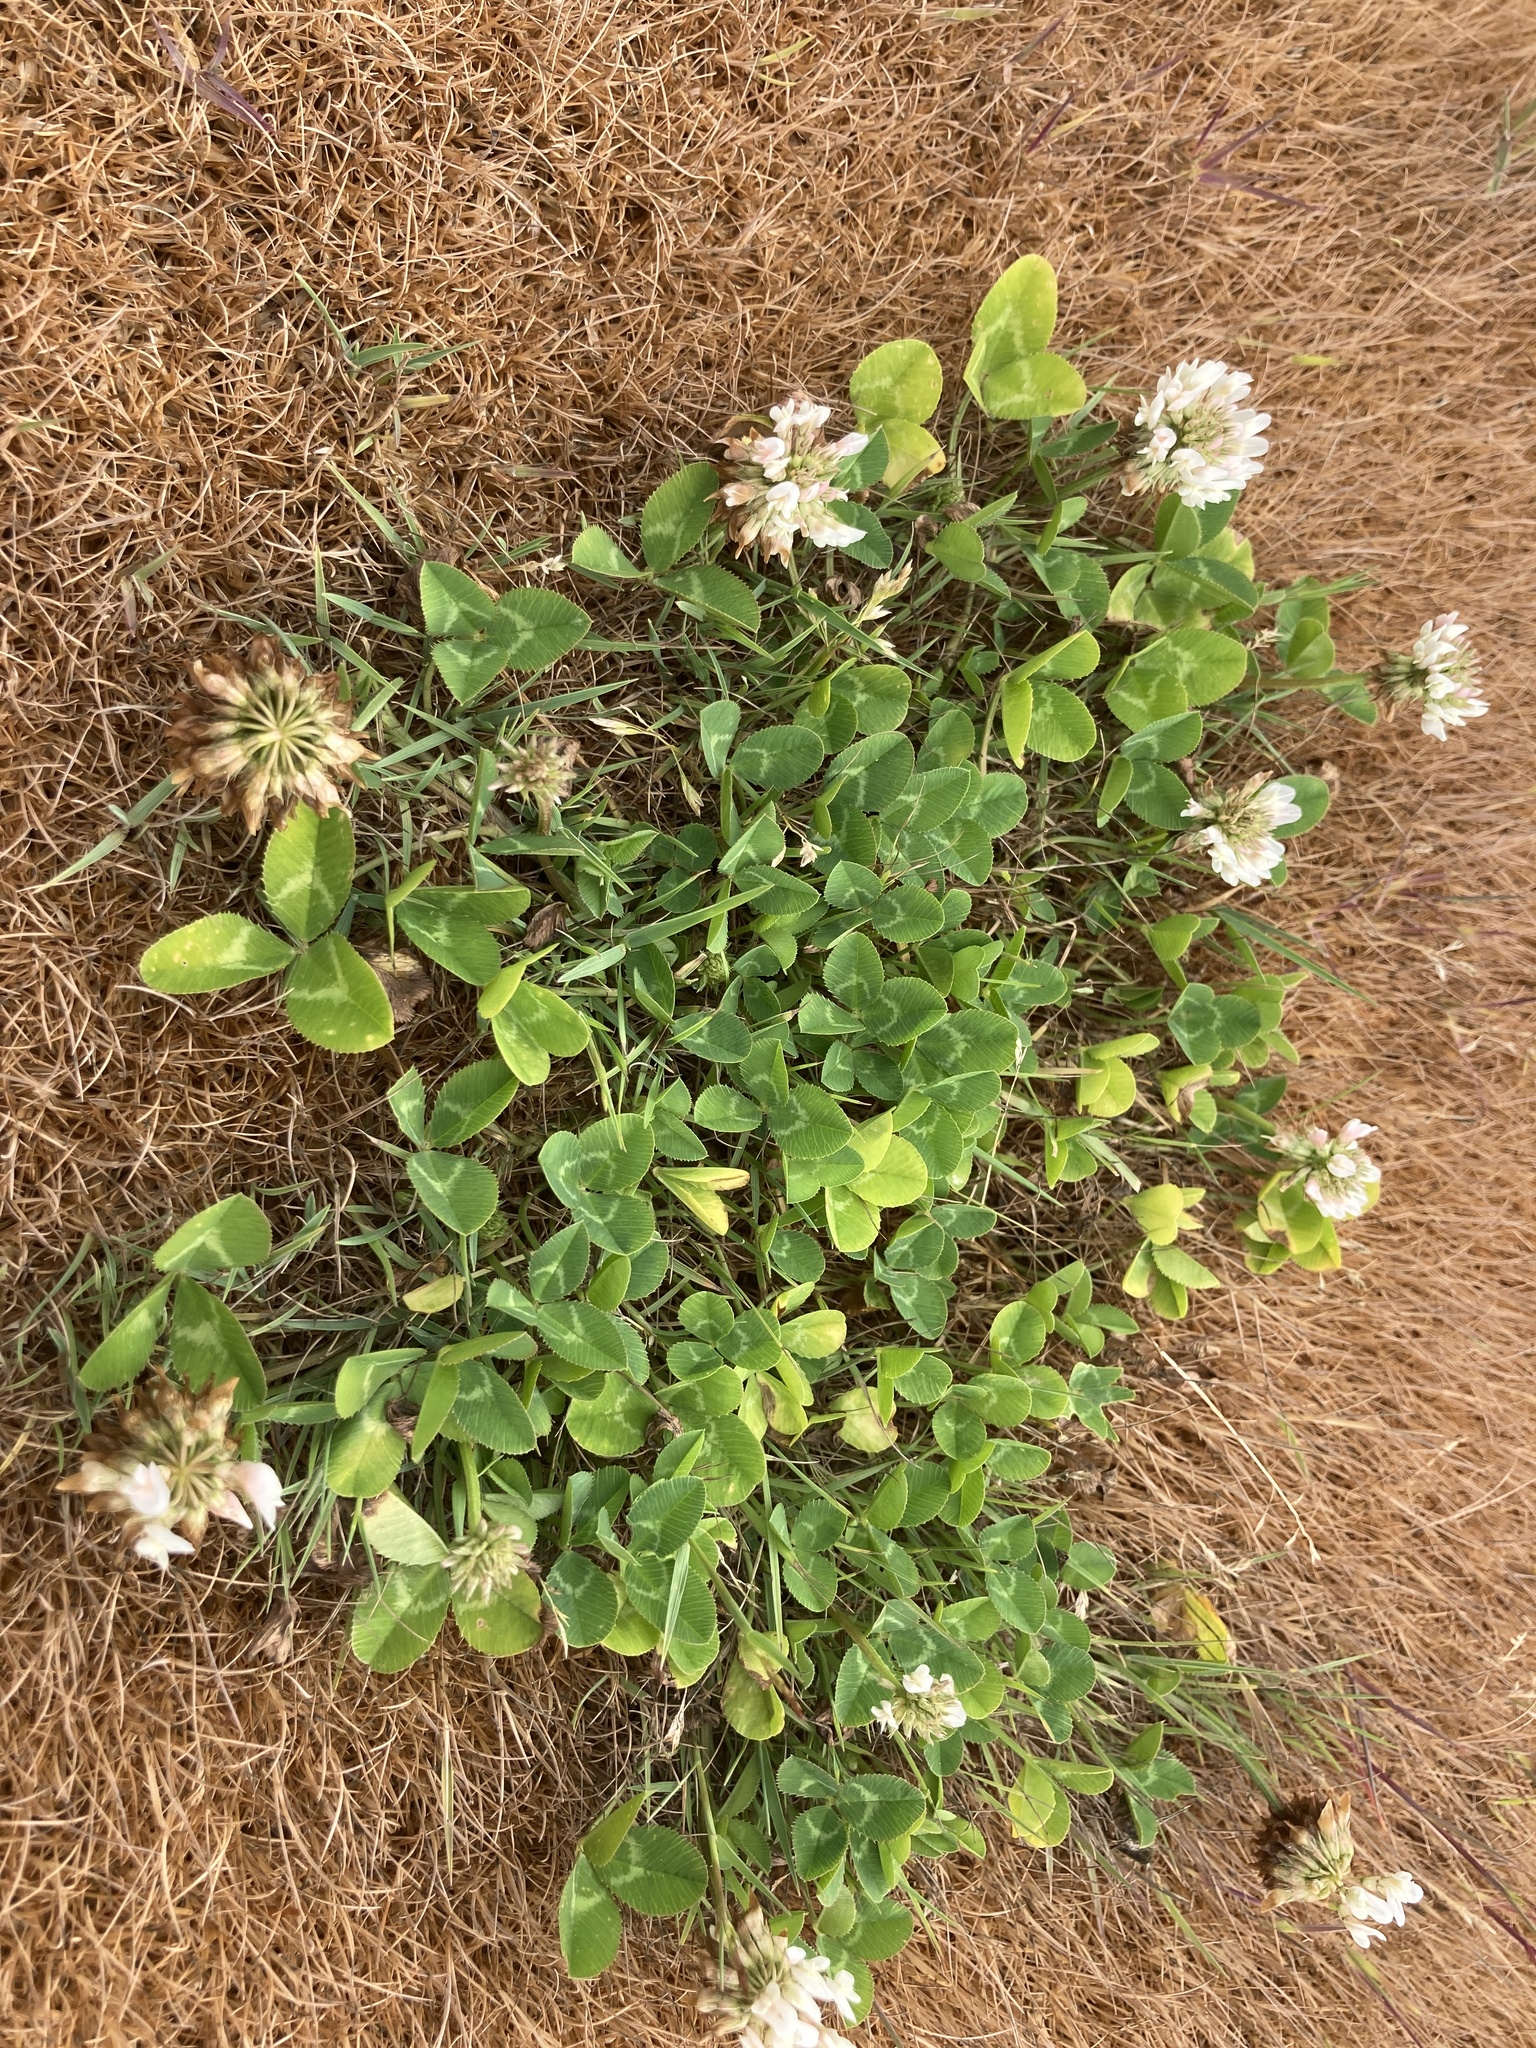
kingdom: Plantae
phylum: Tracheophyta
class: Magnoliopsida
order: Fabales
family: Fabaceae
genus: Trifolium
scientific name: Trifolium repens
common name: White clover
